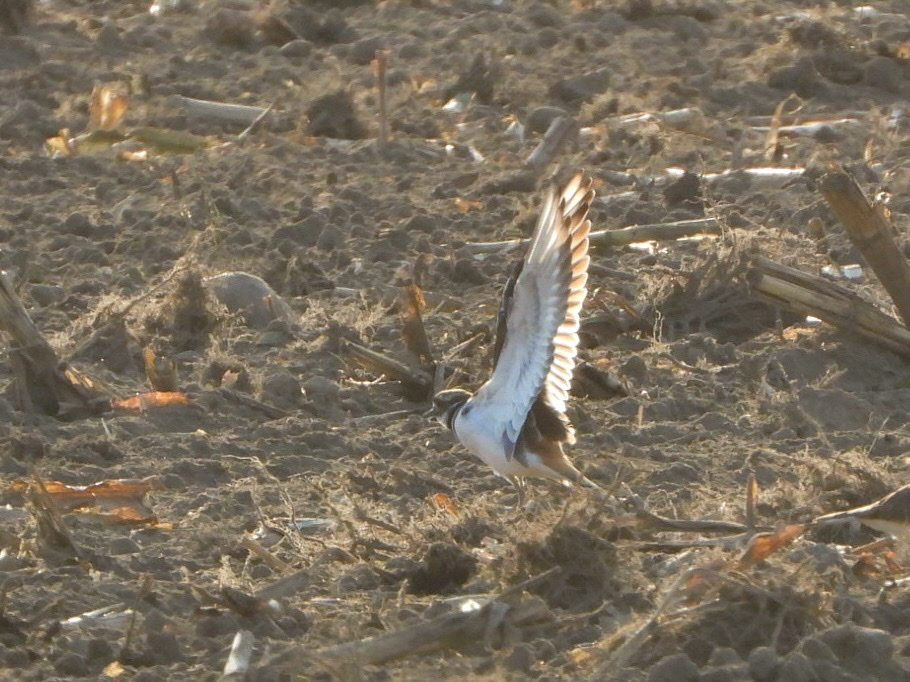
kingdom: Animalia
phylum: Chordata
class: Aves
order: Charadriiformes
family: Charadriidae
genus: Charadrius
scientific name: Charadrius vociferus
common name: Killdeer
